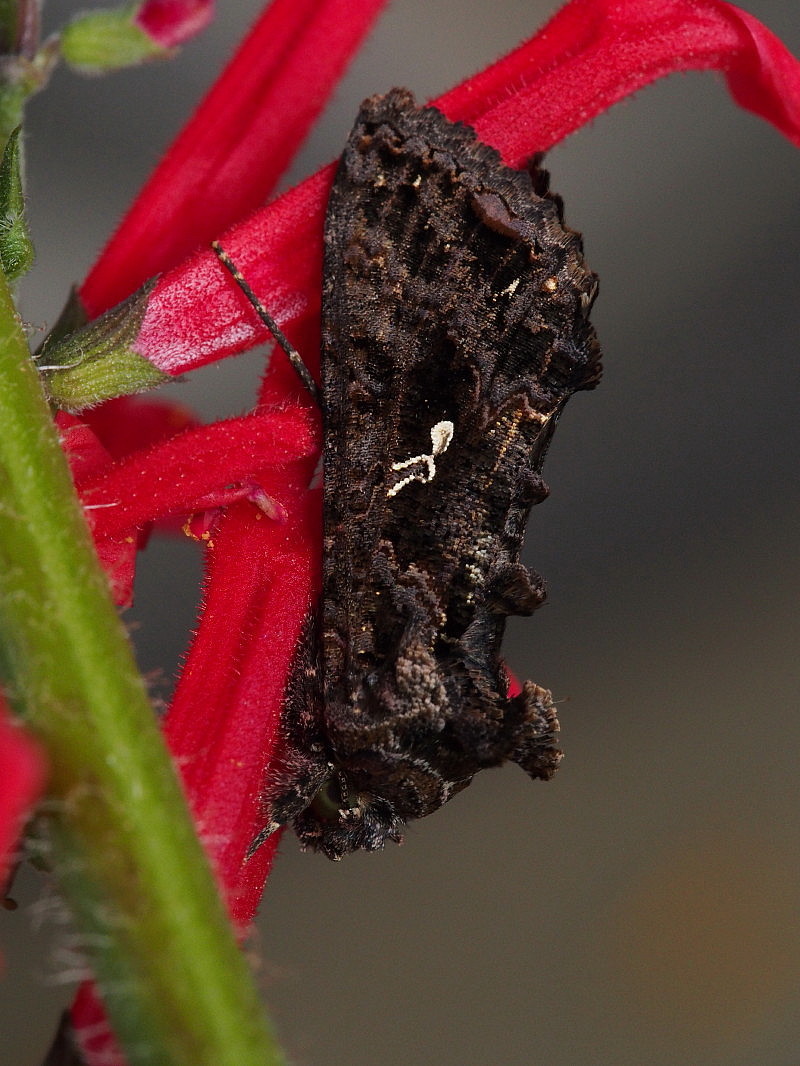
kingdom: Animalia
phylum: Arthropoda
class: Insecta
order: Lepidoptera
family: Noctuidae
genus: Ctenoplusia
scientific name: Ctenoplusia limbirena
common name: Scar bank gem
